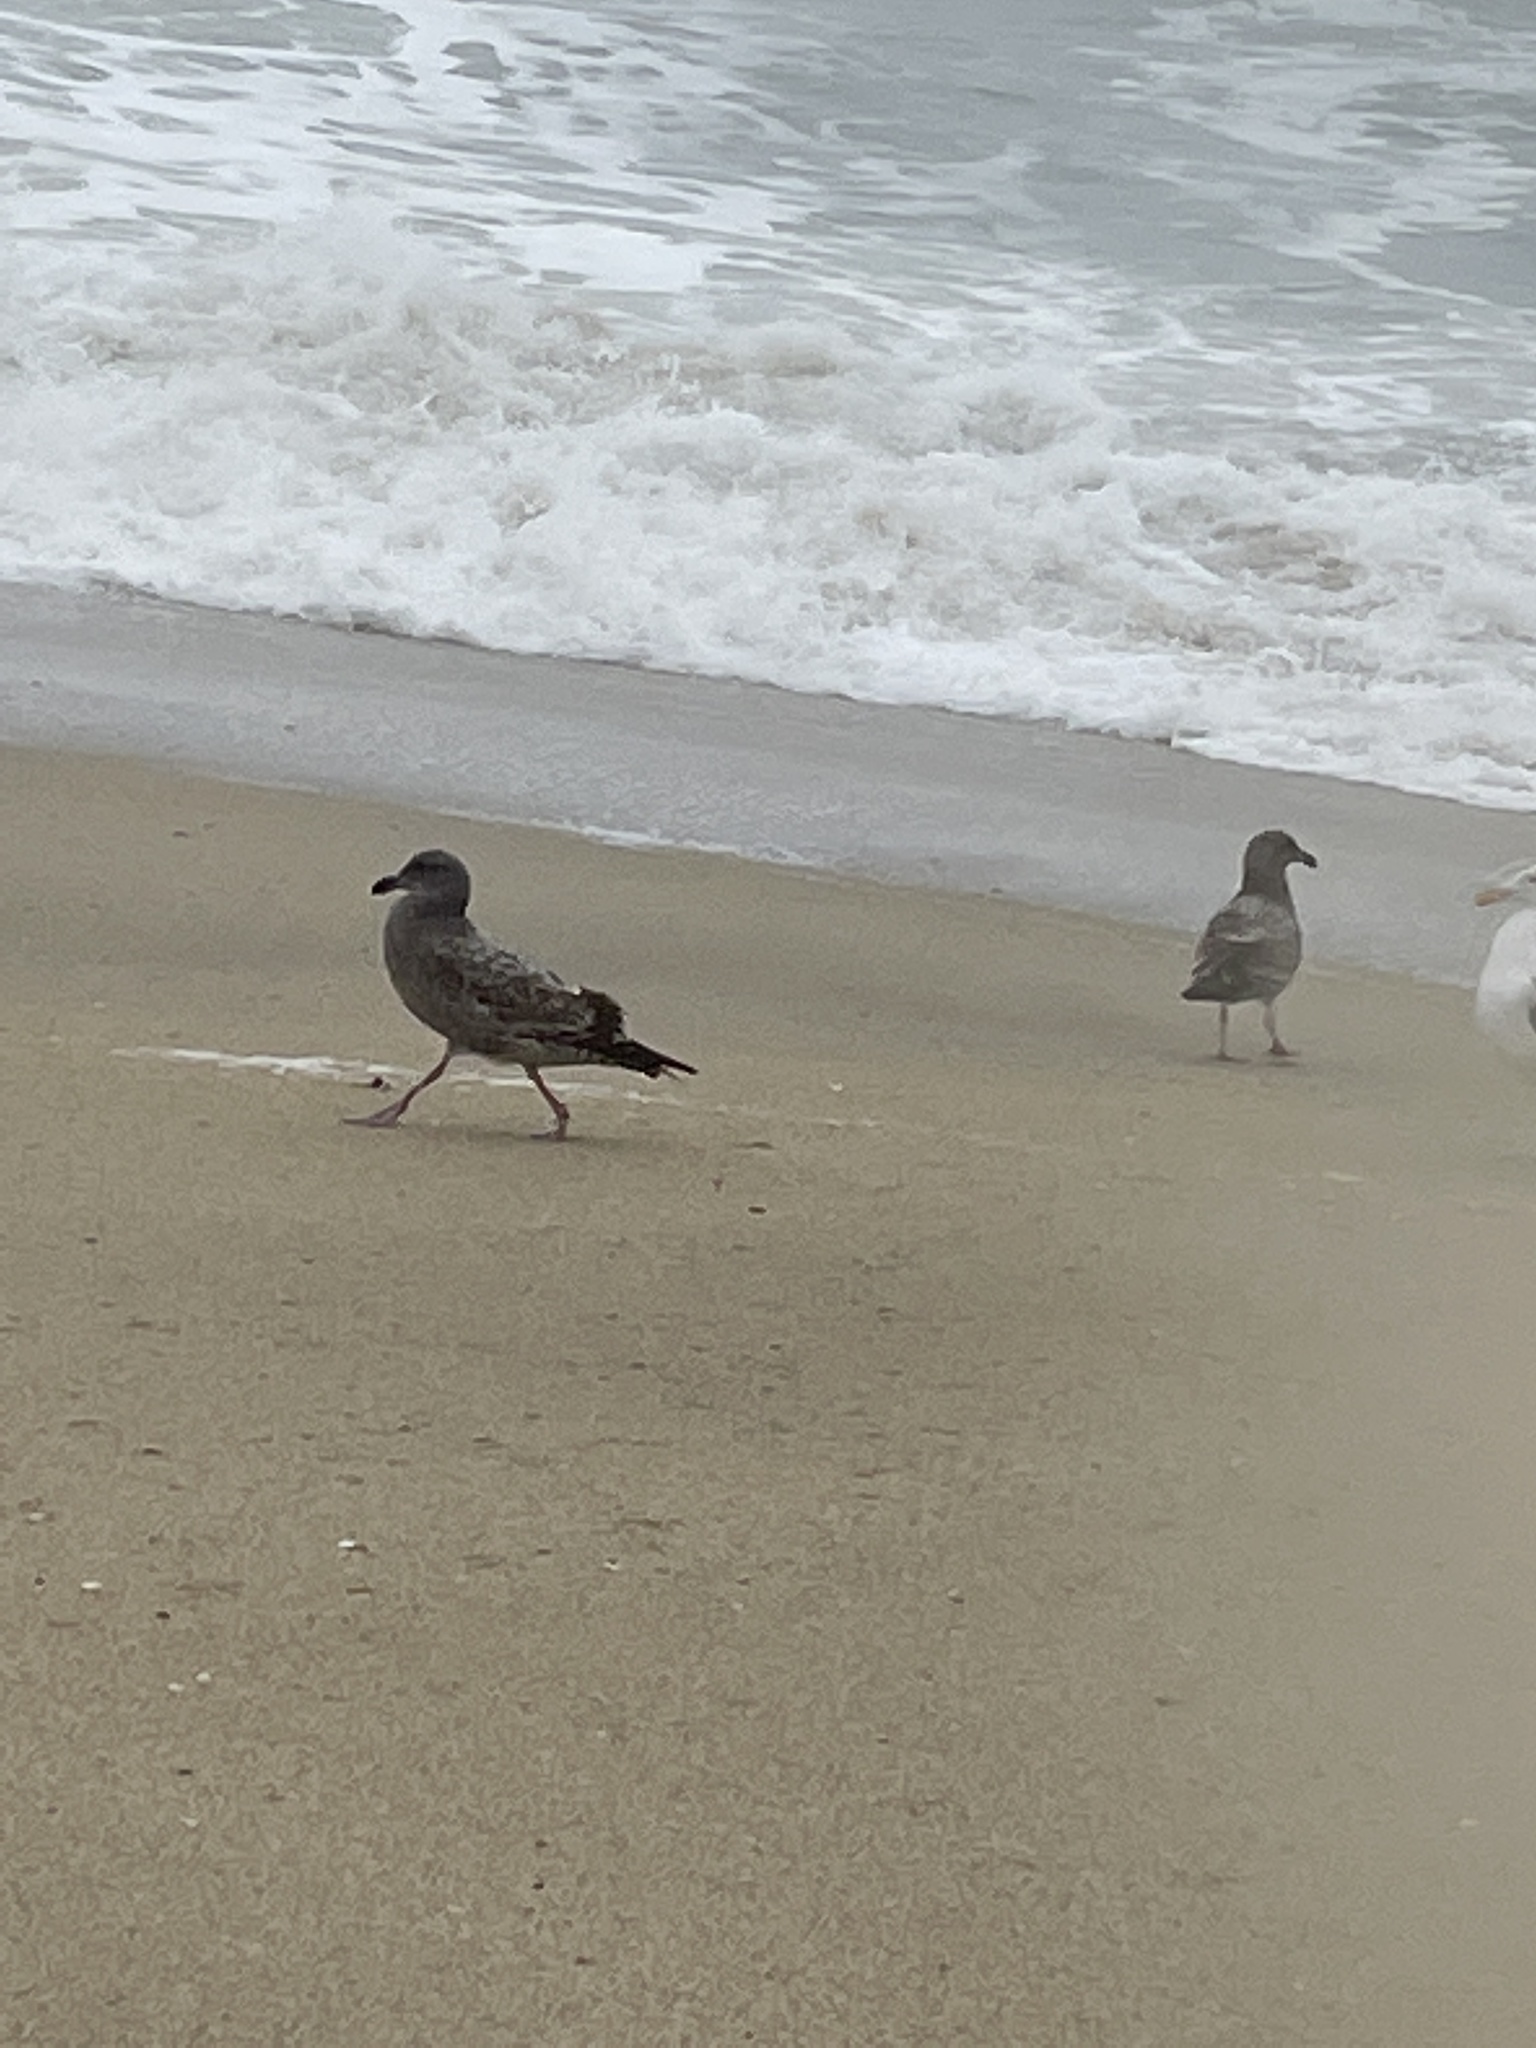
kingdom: Animalia
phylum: Chordata
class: Aves
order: Charadriiformes
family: Laridae
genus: Larus
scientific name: Larus occidentalis
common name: Western gull
